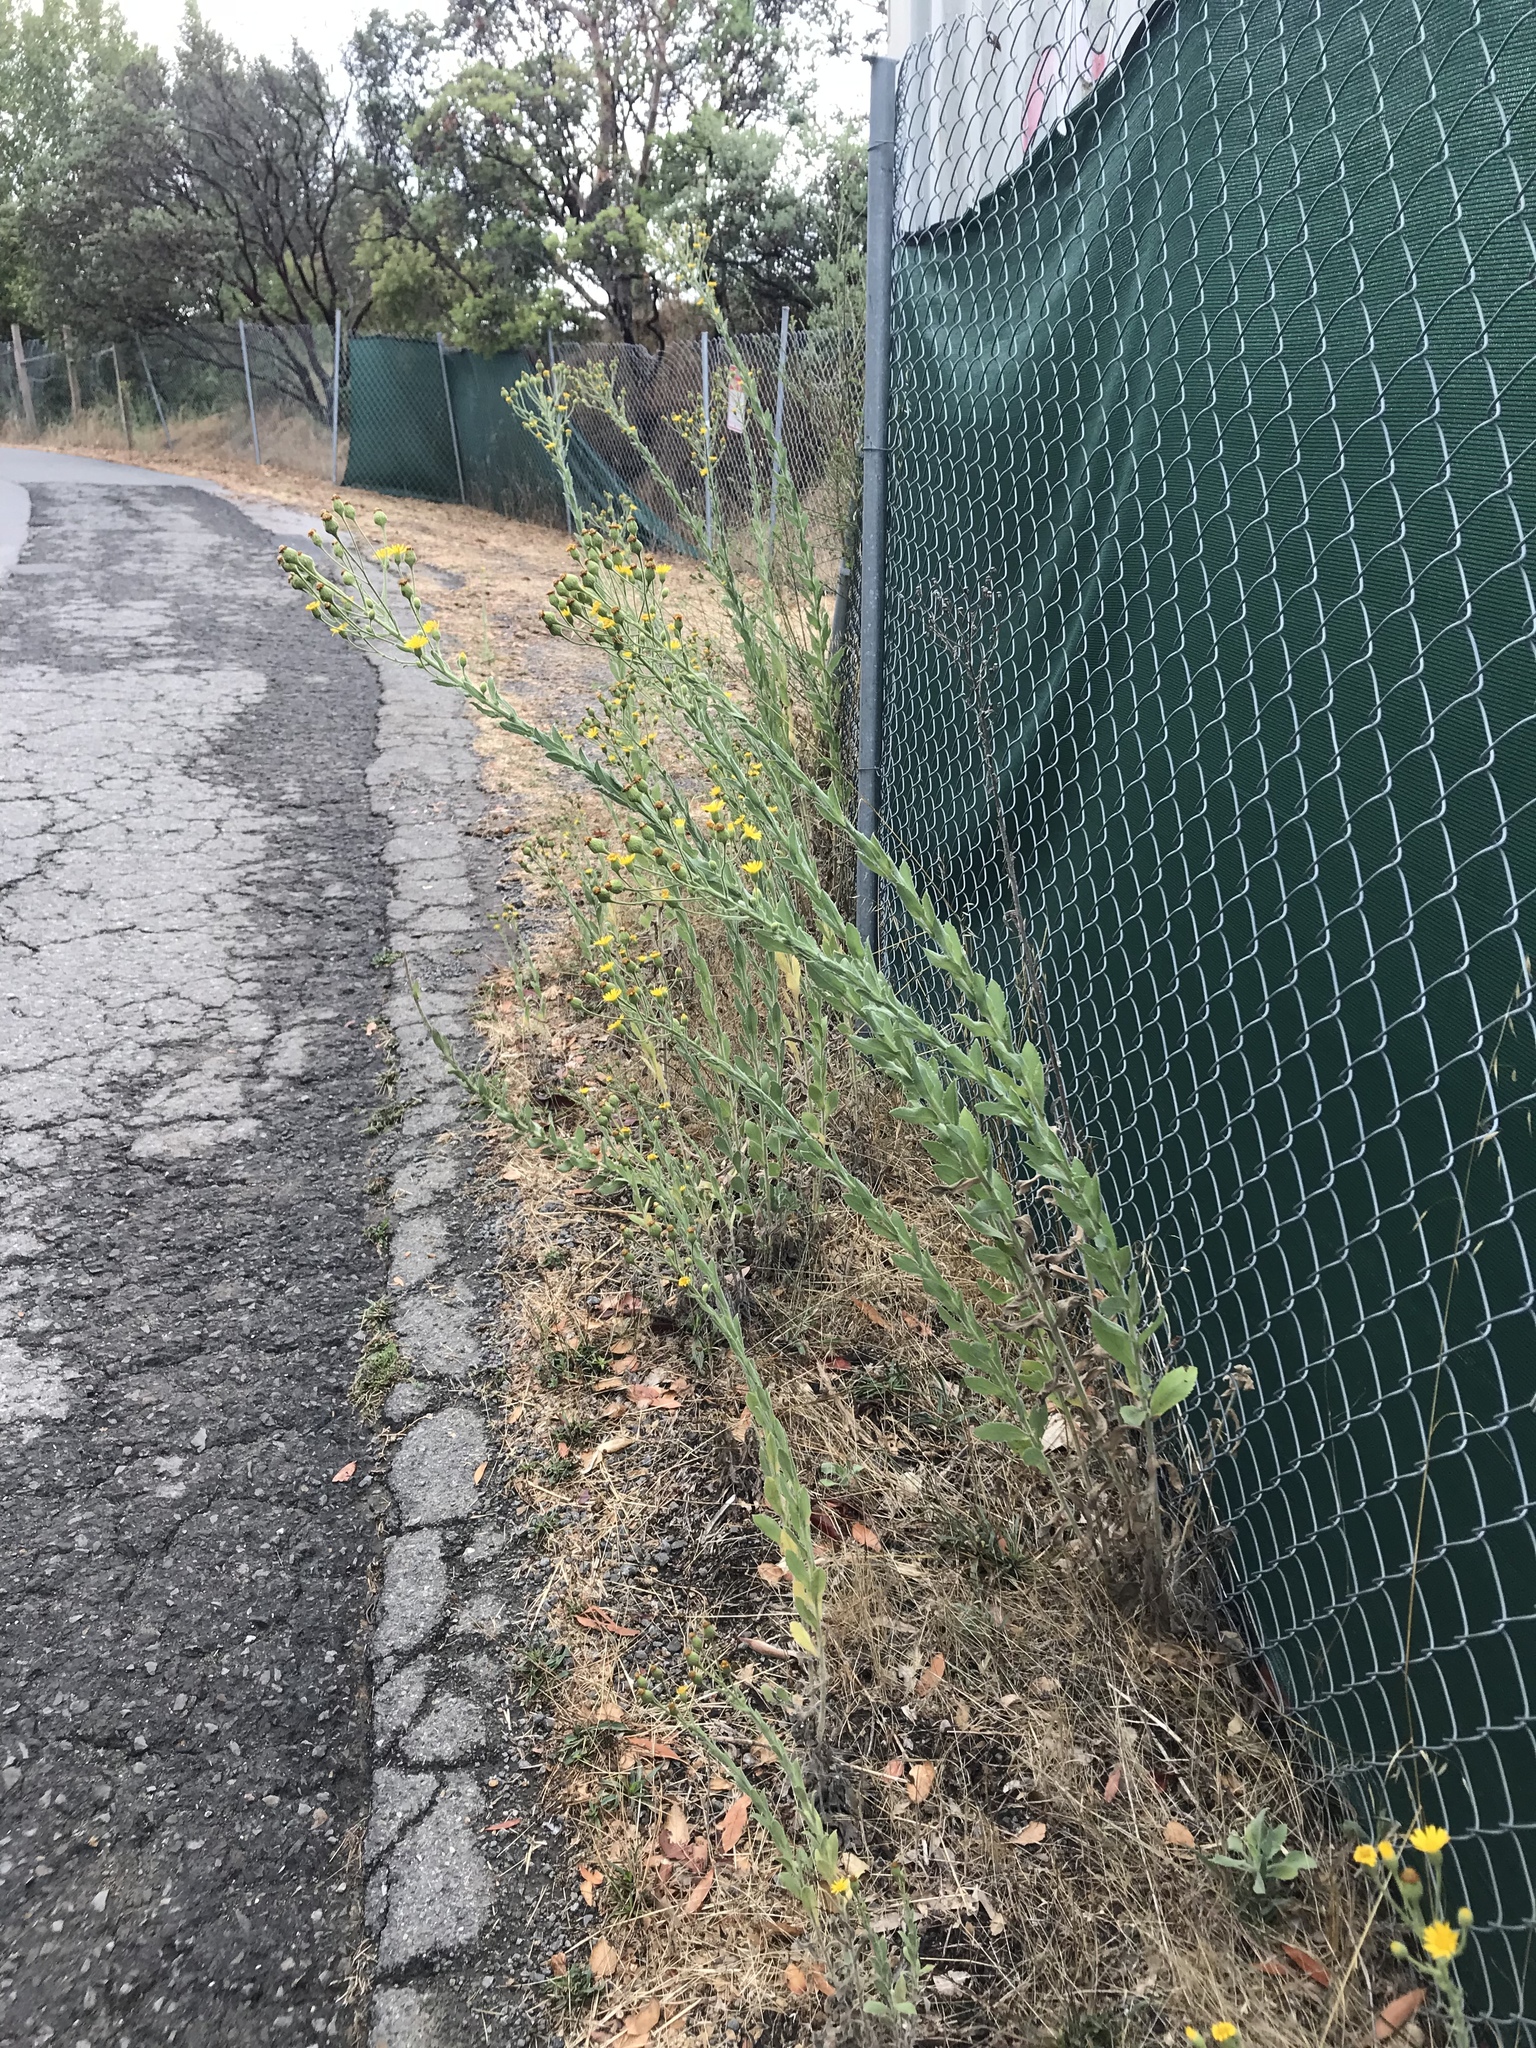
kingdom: Plantae
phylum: Tracheophyta
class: Magnoliopsida
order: Asterales
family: Asteraceae
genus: Heterotheca
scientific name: Heterotheca grandiflora
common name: Telegraphweed
